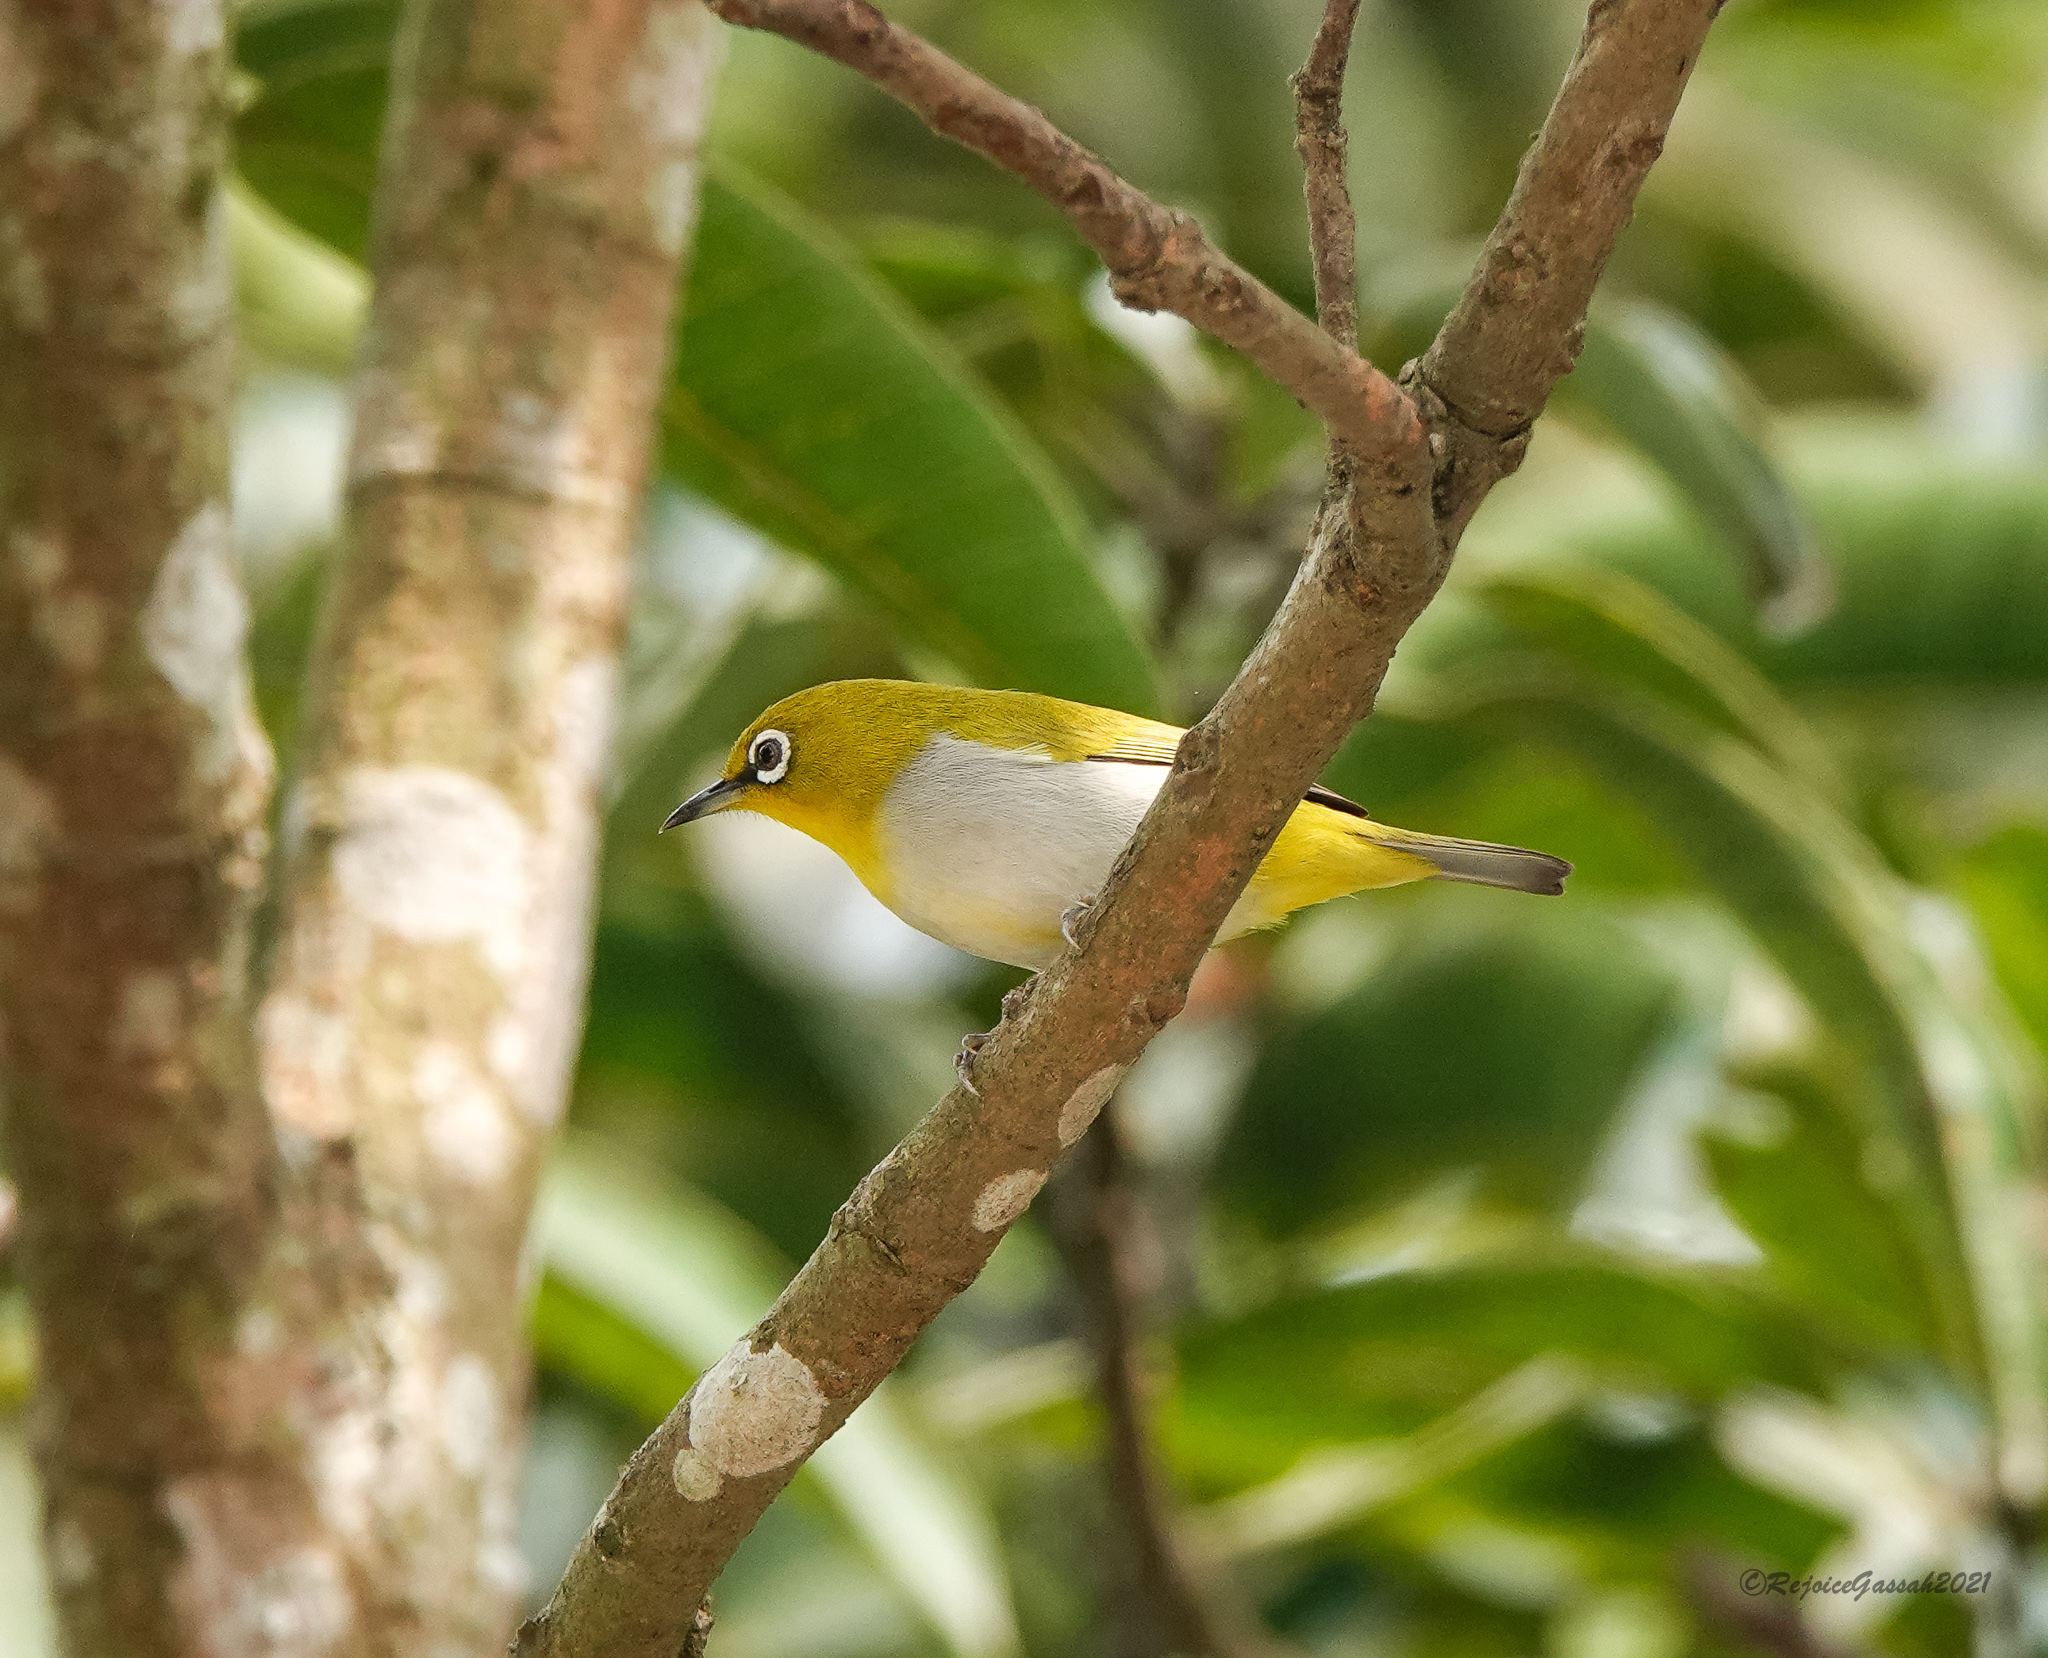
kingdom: Animalia
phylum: Chordata
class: Aves
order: Passeriformes
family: Zosteropidae
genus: Zosterops
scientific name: Zosterops palpebrosus
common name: Oriental white-eye
